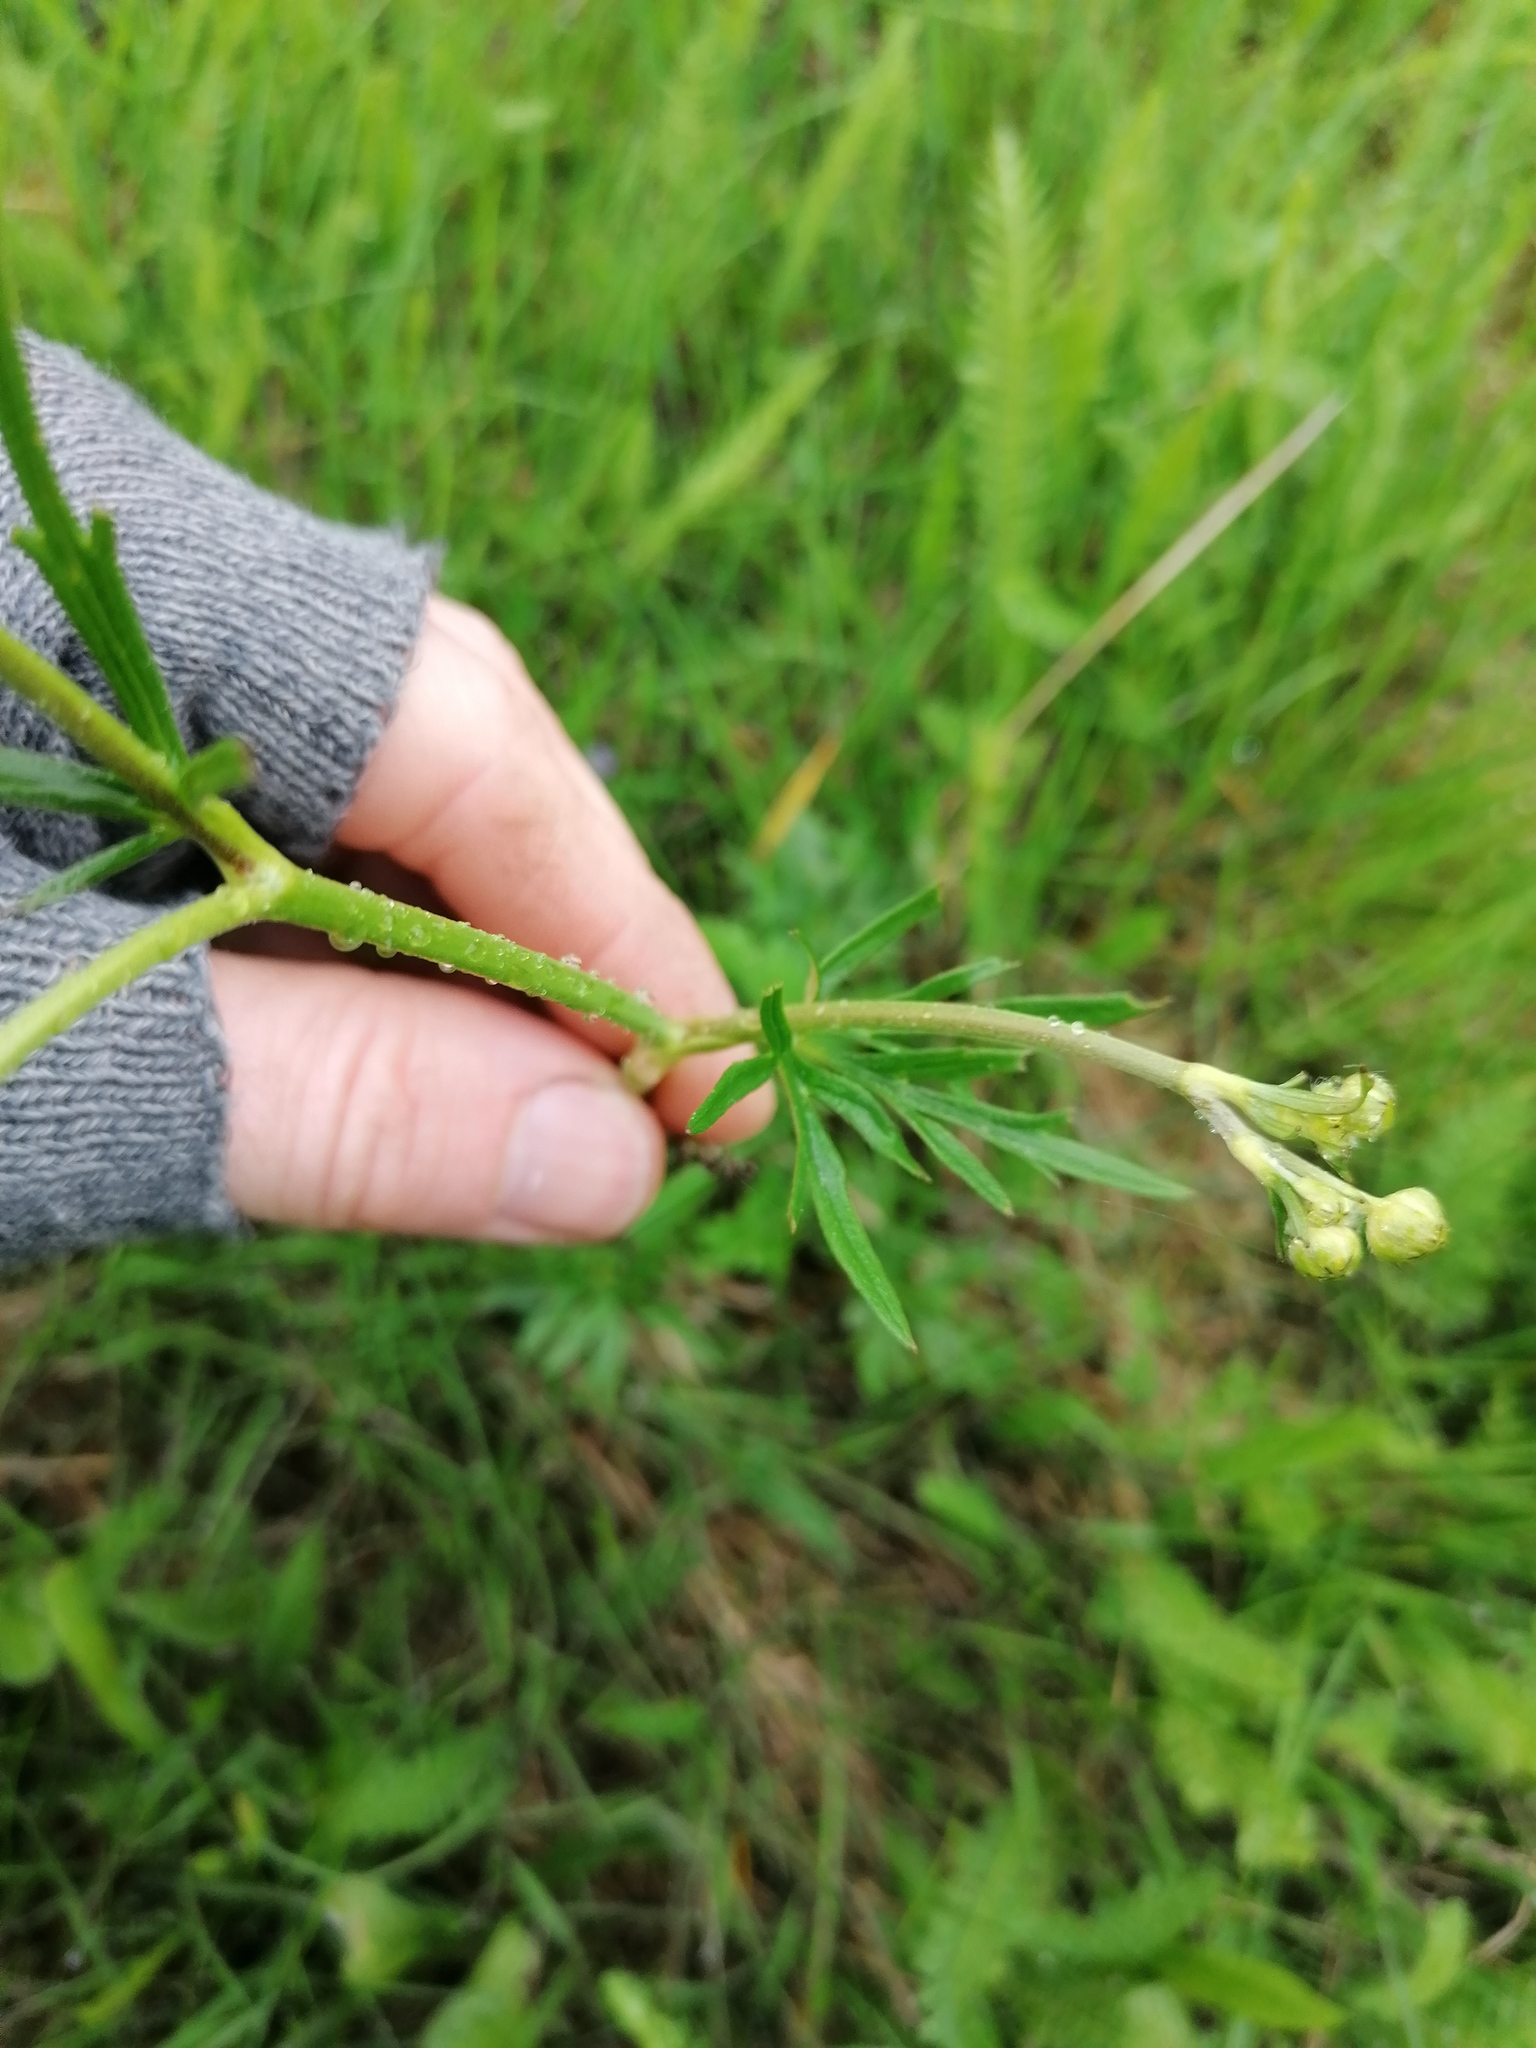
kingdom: Plantae
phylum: Tracheophyta
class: Magnoliopsida
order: Ranunculales
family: Ranunculaceae
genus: Ranunculus
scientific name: Ranunculus acris
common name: Meadow buttercup
